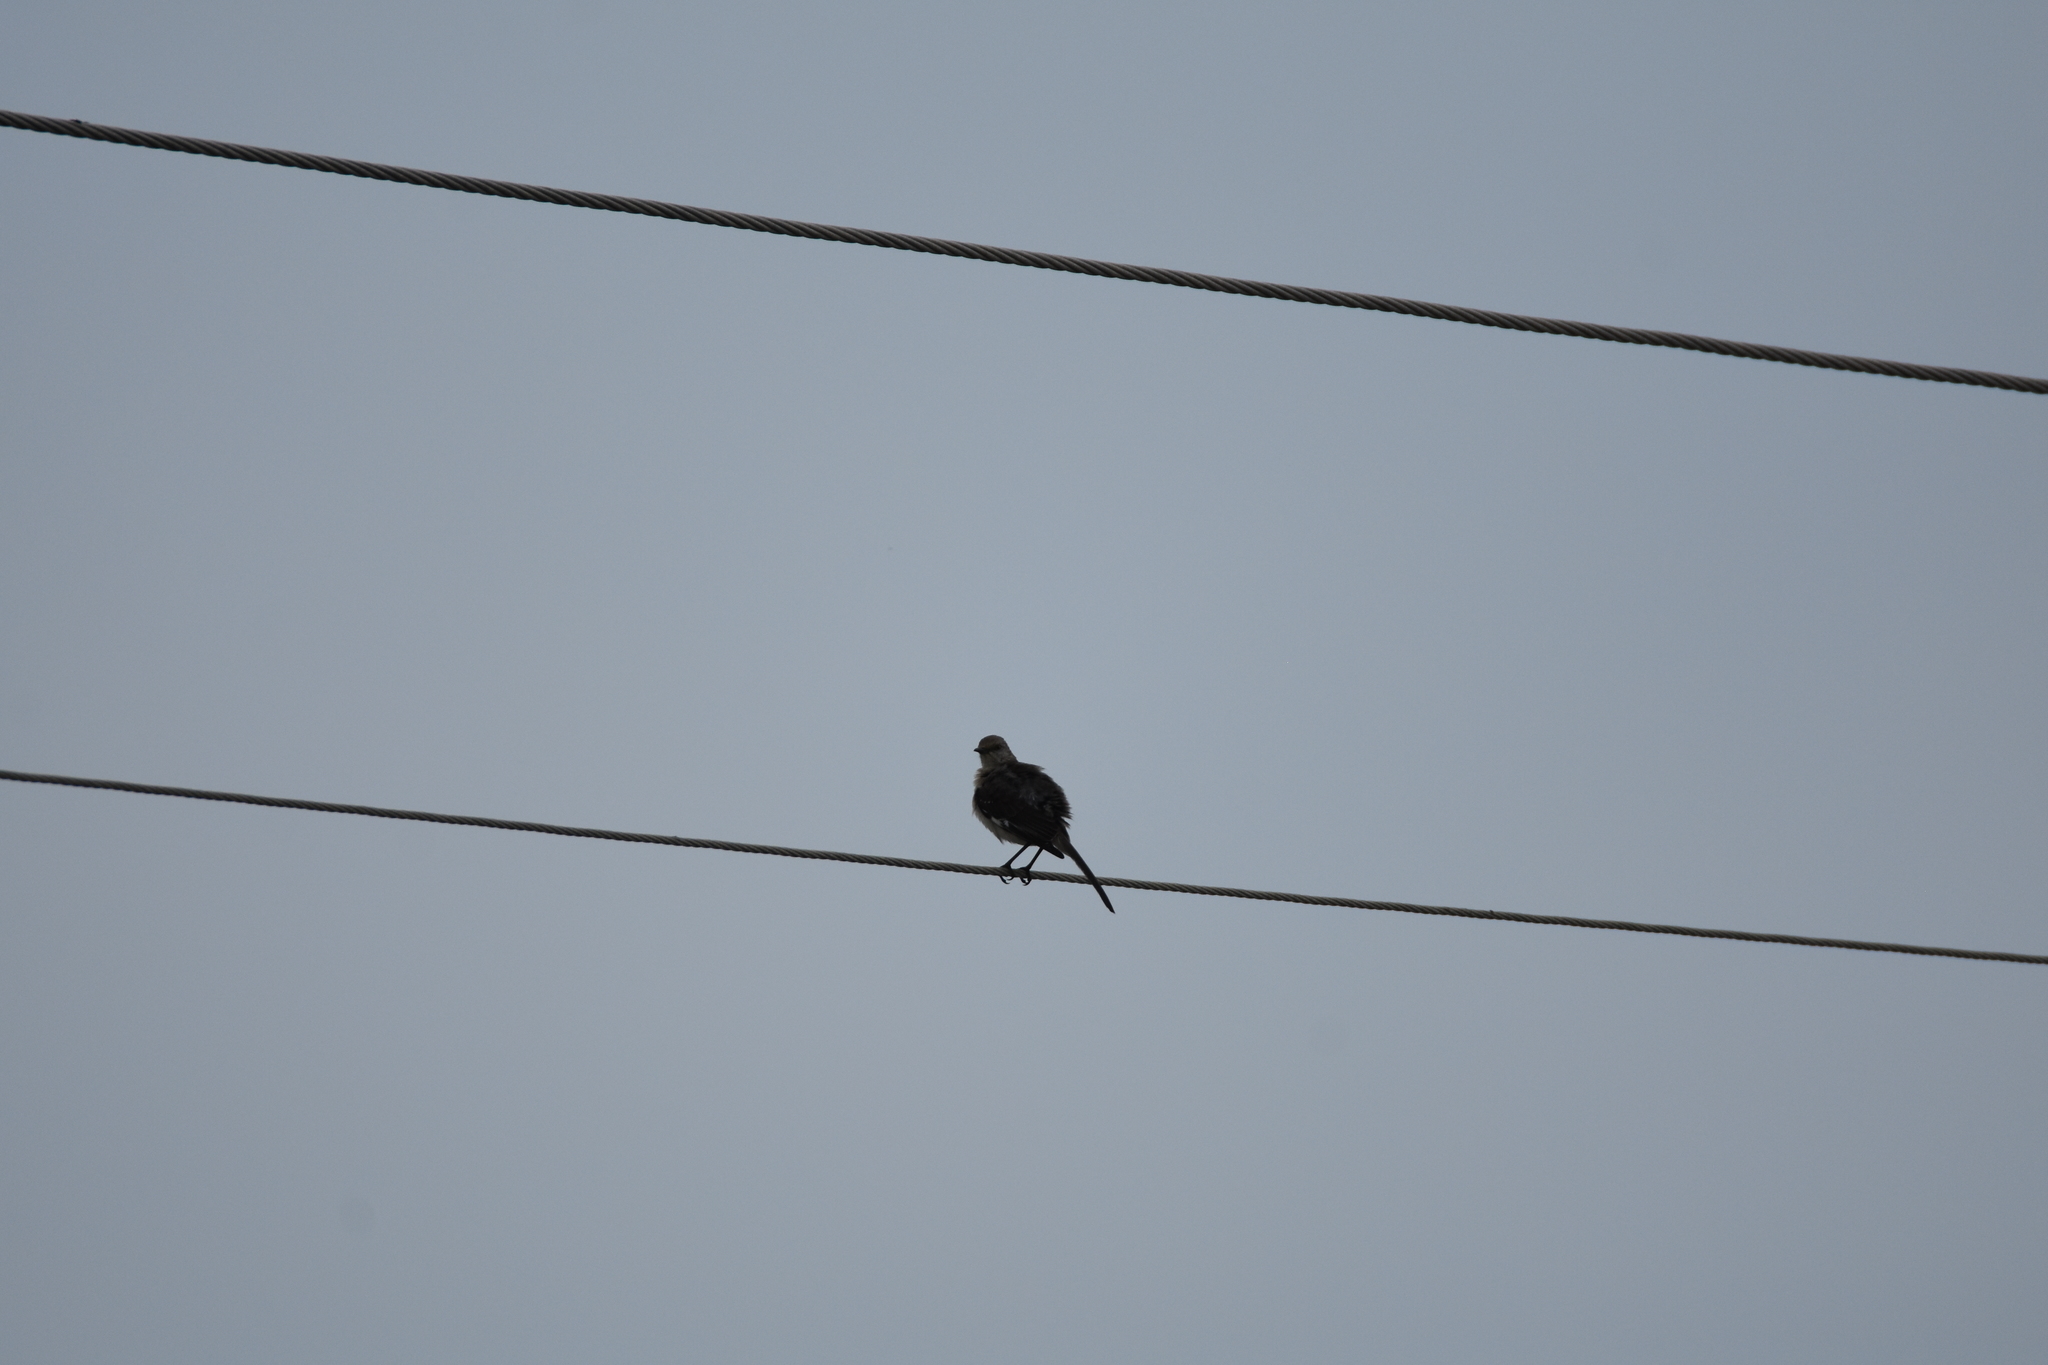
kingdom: Animalia
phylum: Chordata
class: Aves
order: Passeriformes
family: Mimidae
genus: Mimus
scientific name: Mimus polyglottos
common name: Northern mockingbird
